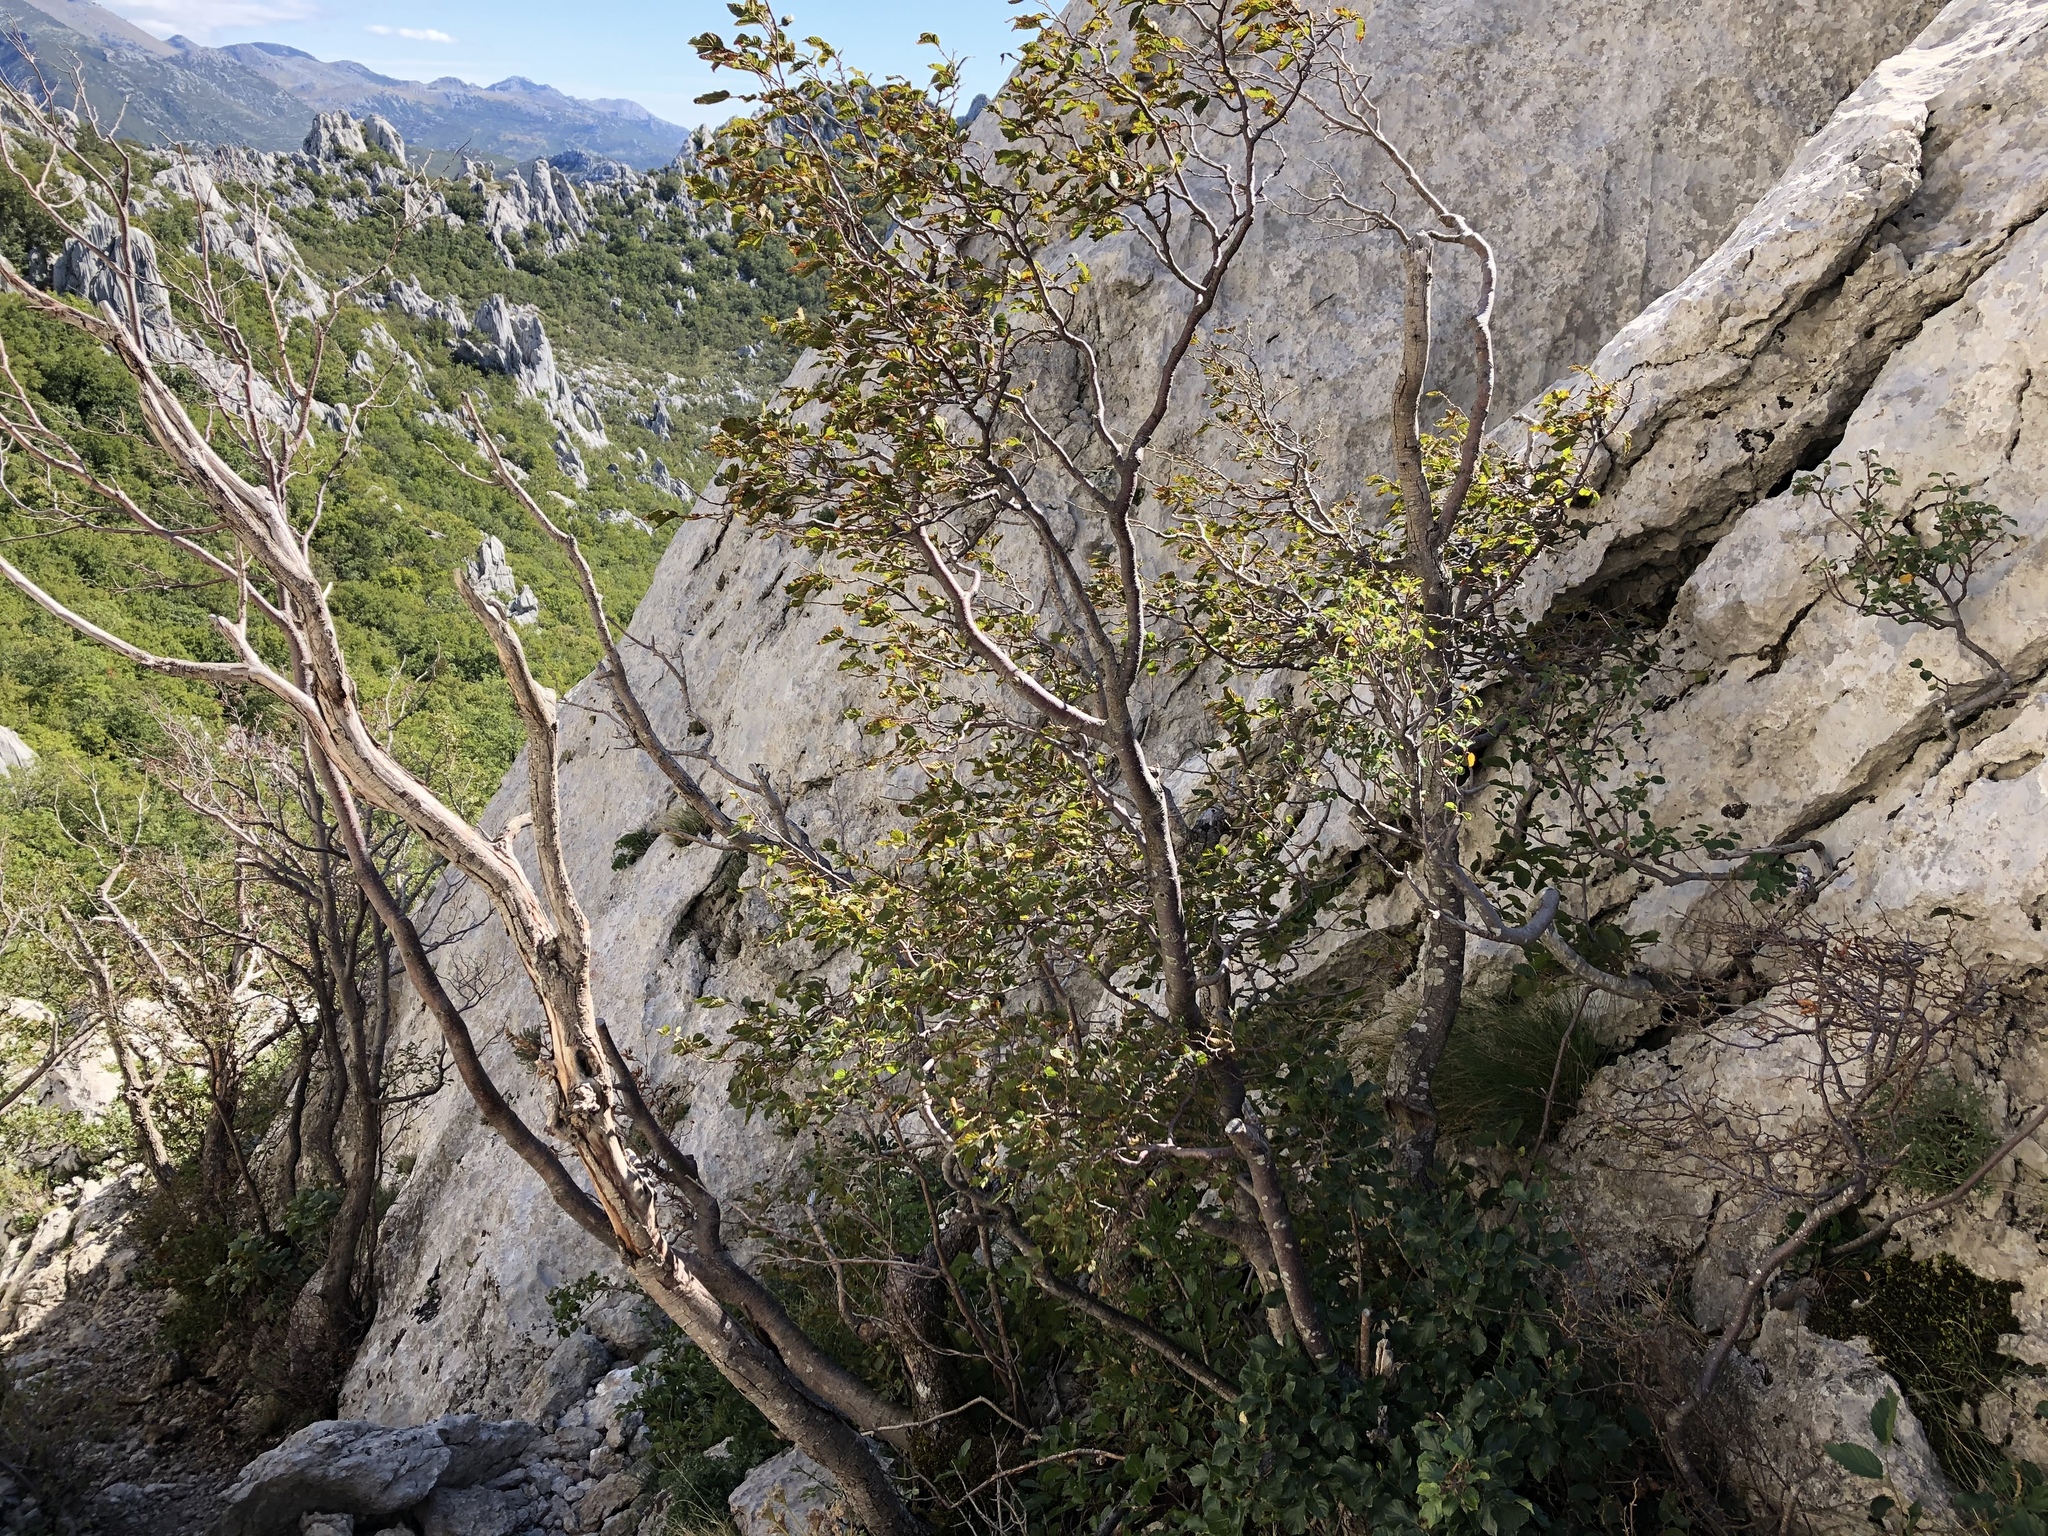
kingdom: Plantae
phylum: Tracheophyta
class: Magnoliopsida
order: Fagales
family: Fagaceae
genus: Fagus
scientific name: Fagus sylvatica
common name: Beech
